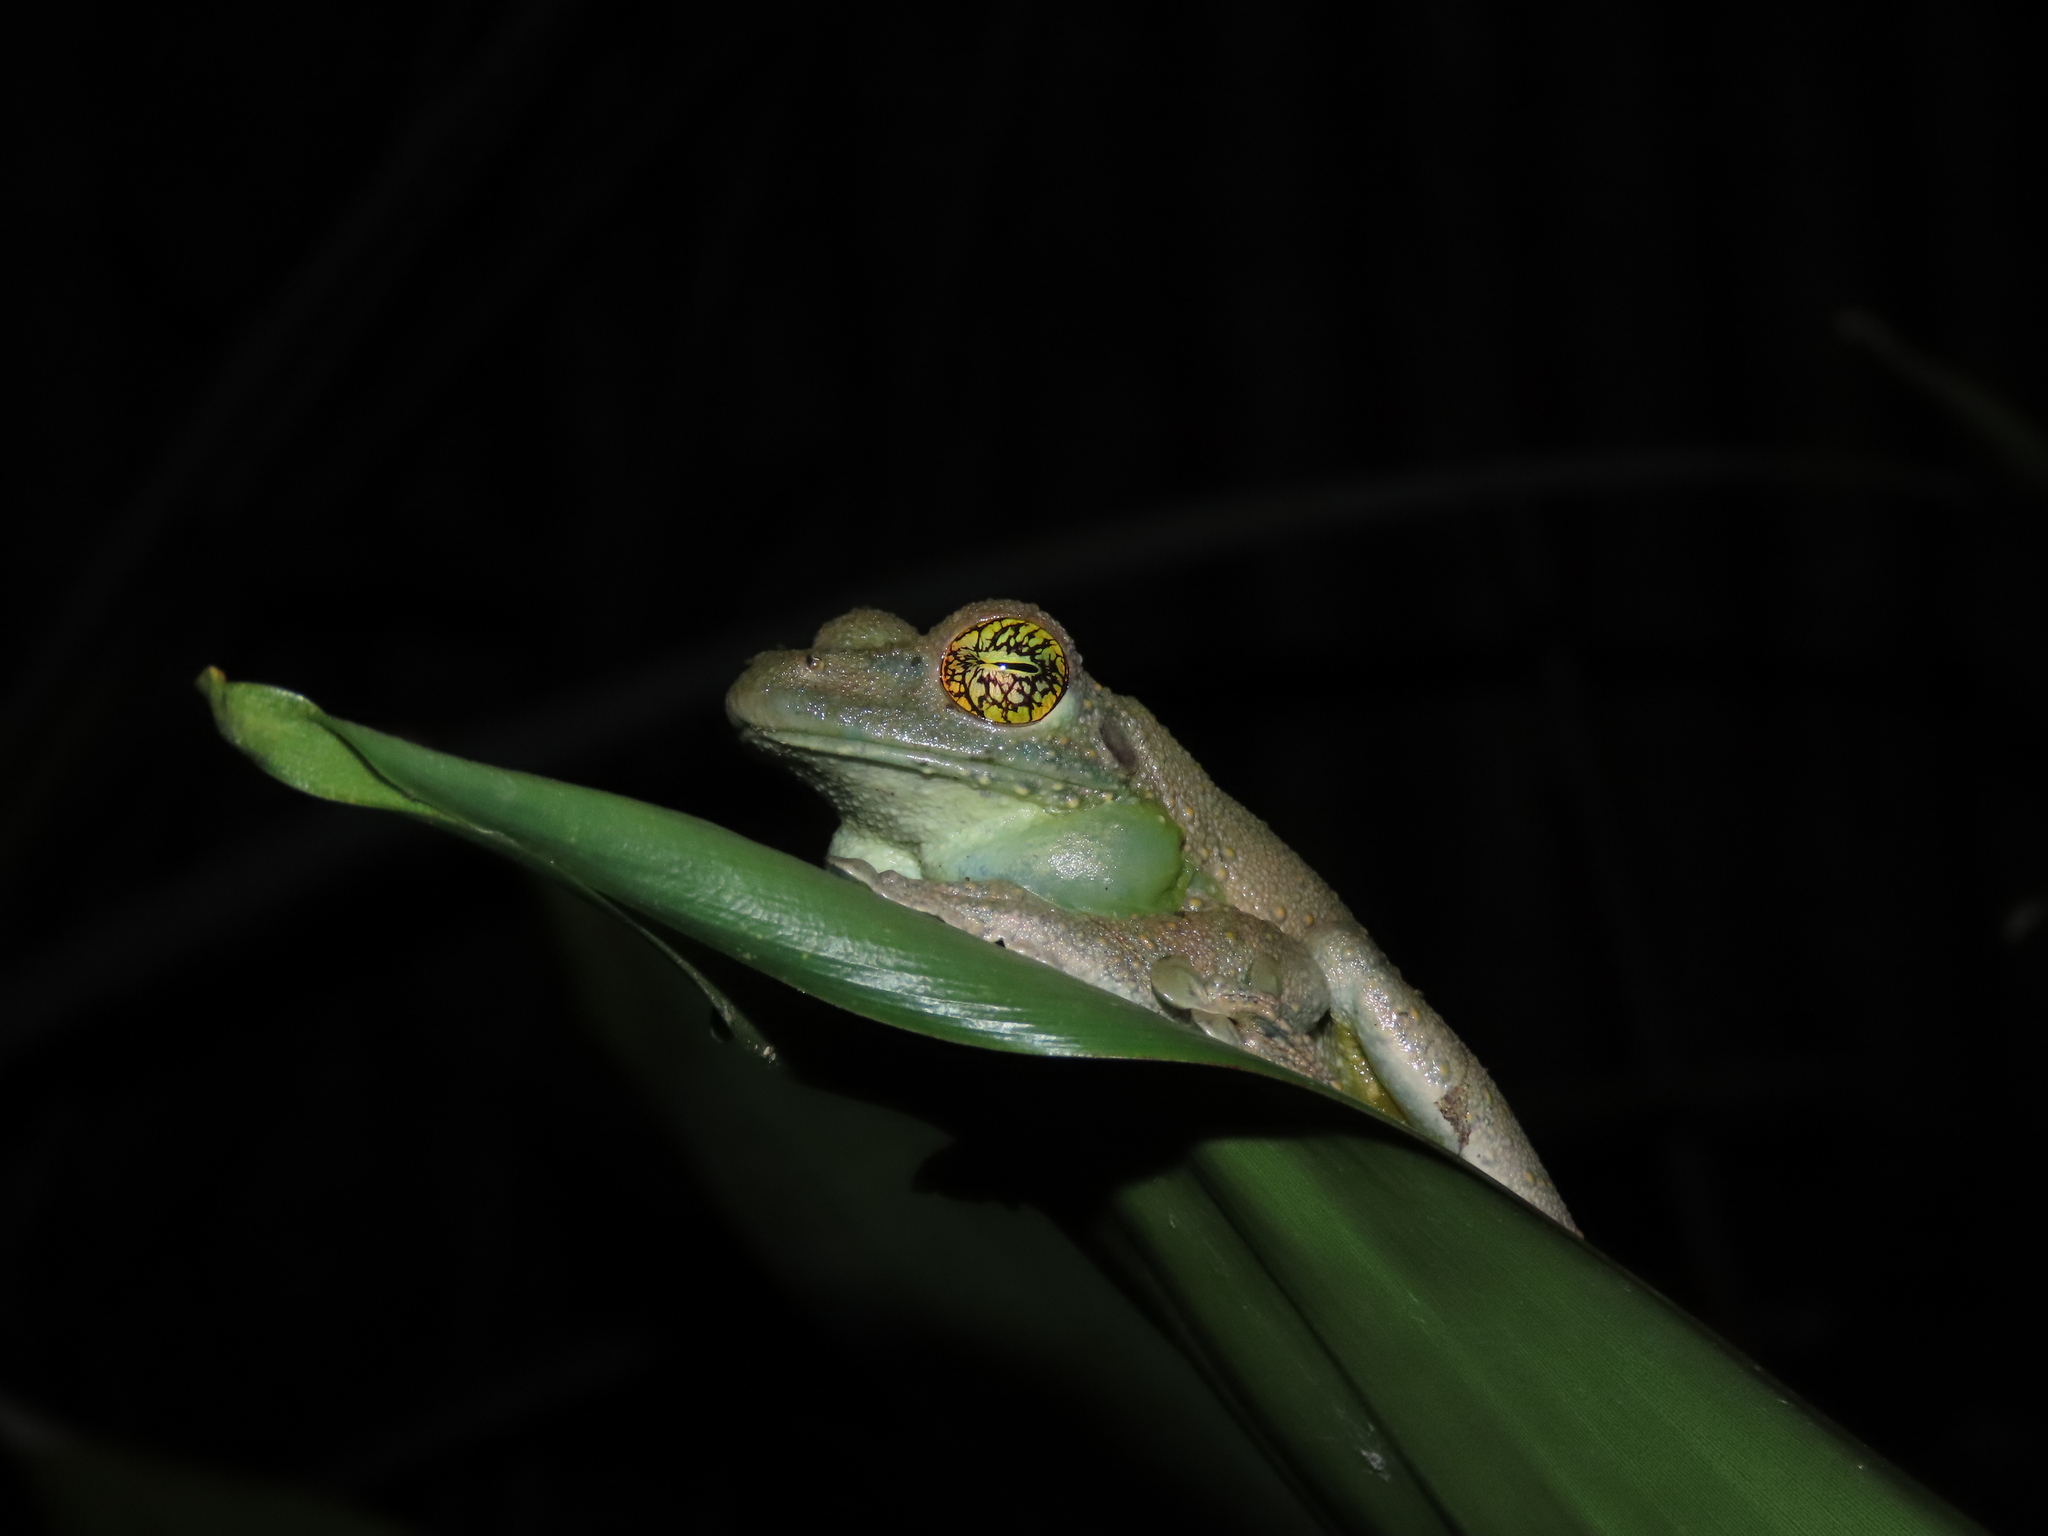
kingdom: Animalia
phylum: Chordata
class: Amphibia
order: Anura
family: Hylidae
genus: Itapotihyla
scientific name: Itapotihyla langsdorffii
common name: Ocellated treefrog
